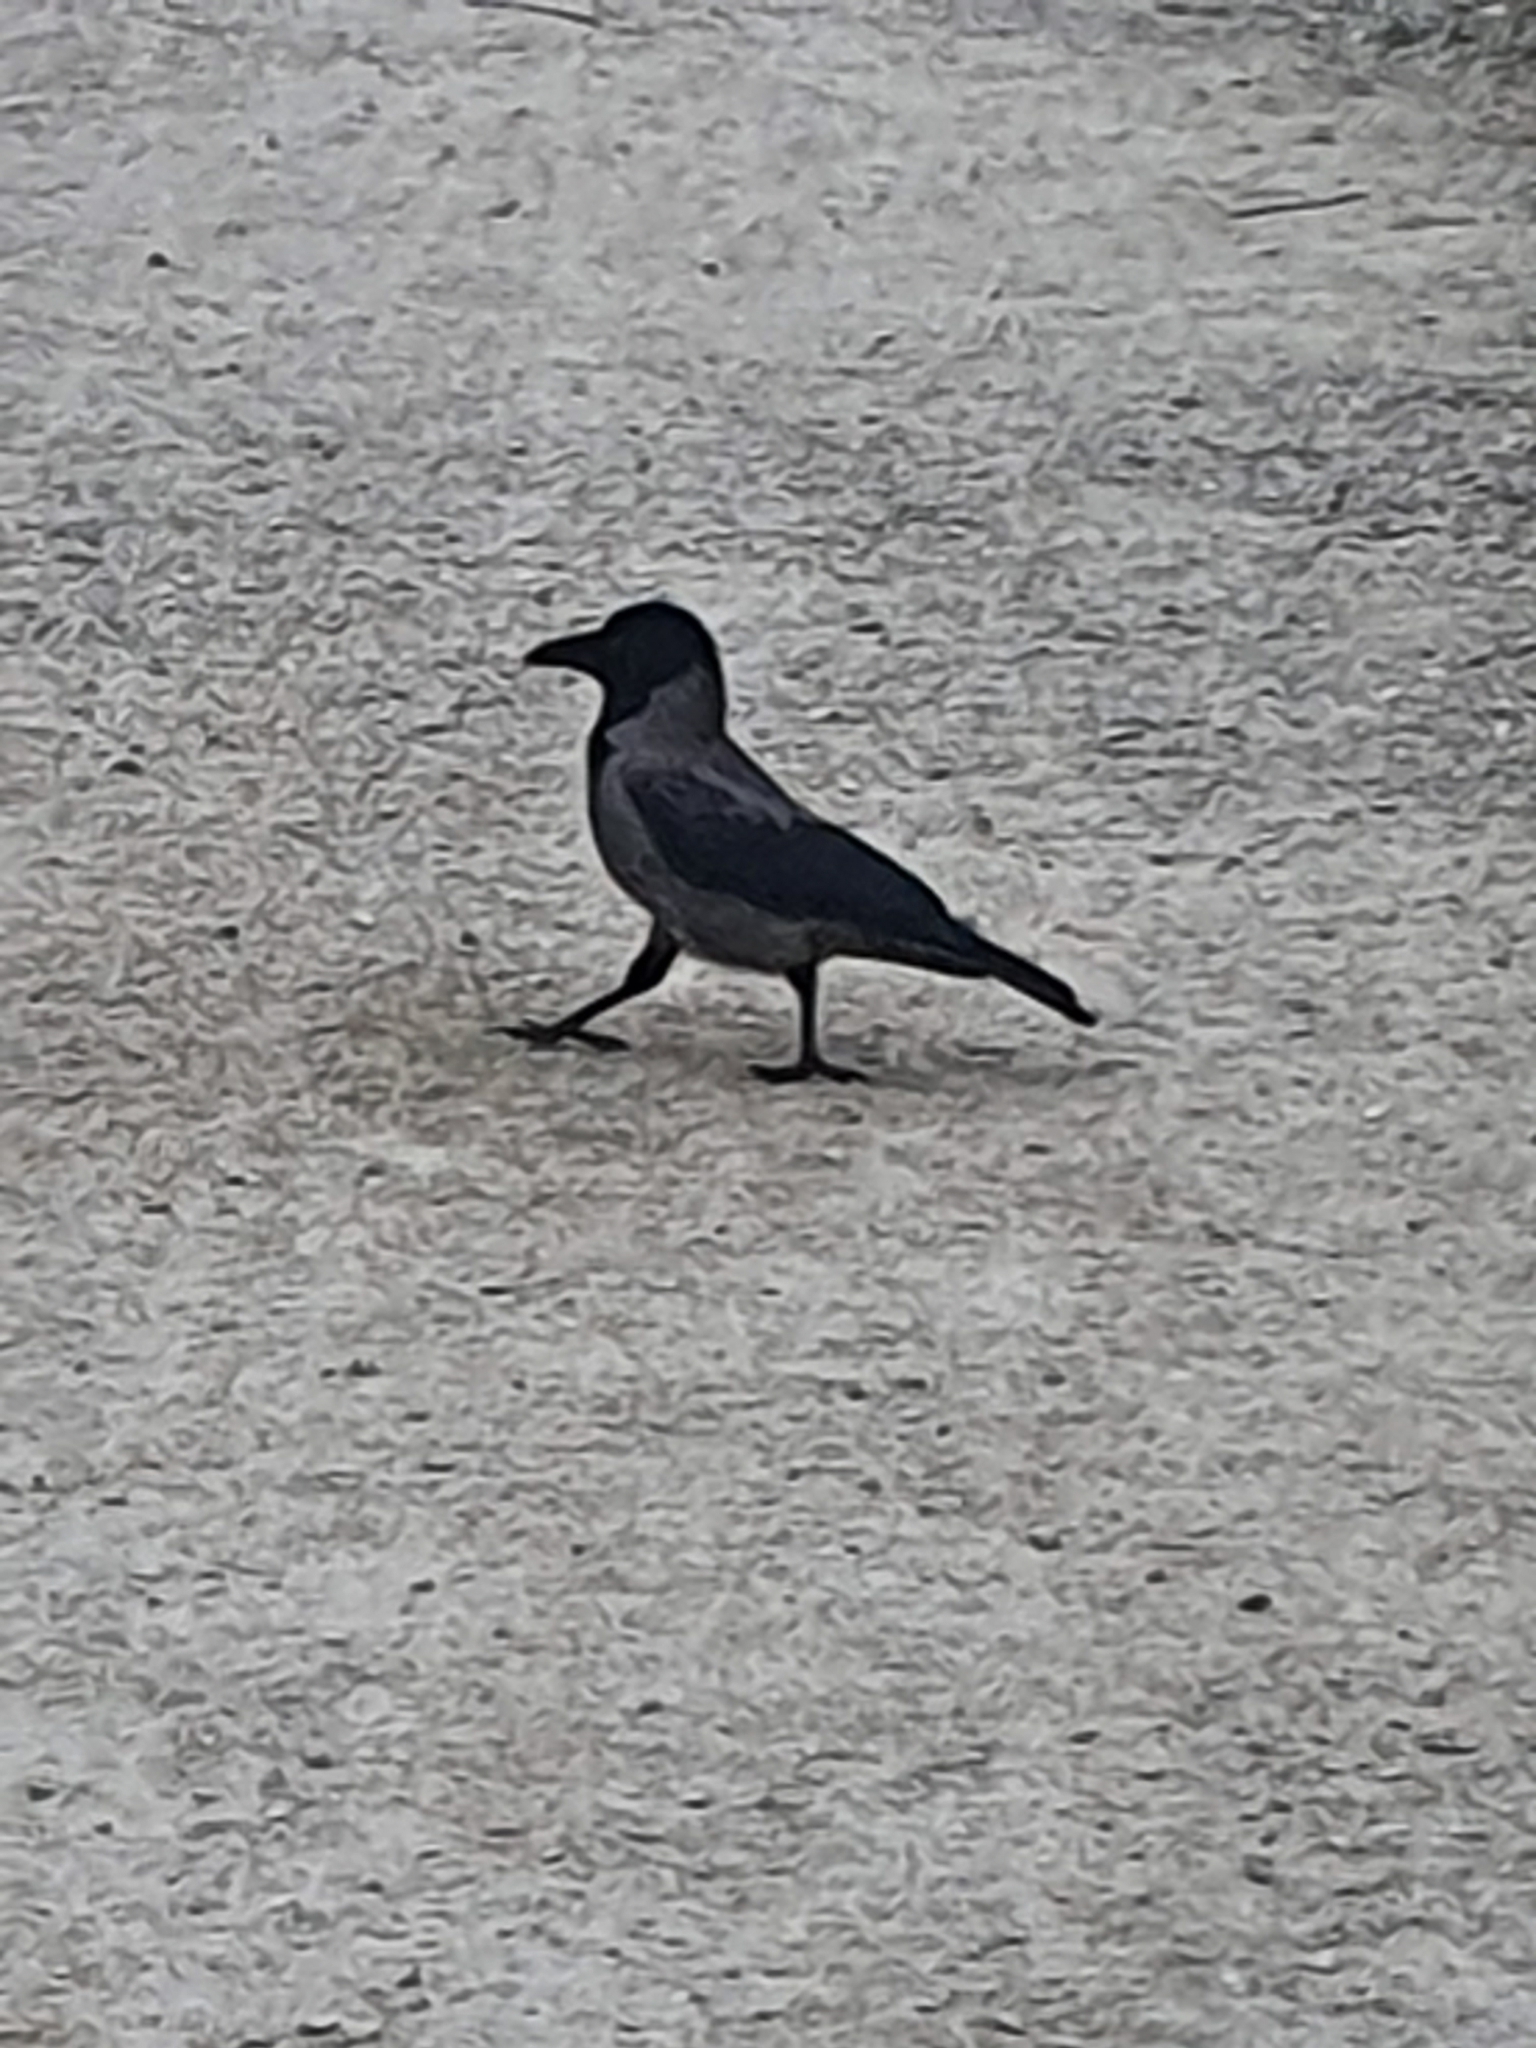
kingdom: Animalia
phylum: Chordata
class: Aves
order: Passeriformes
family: Corvidae
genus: Corvus
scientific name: Corvus cornix
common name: Hooded crow
